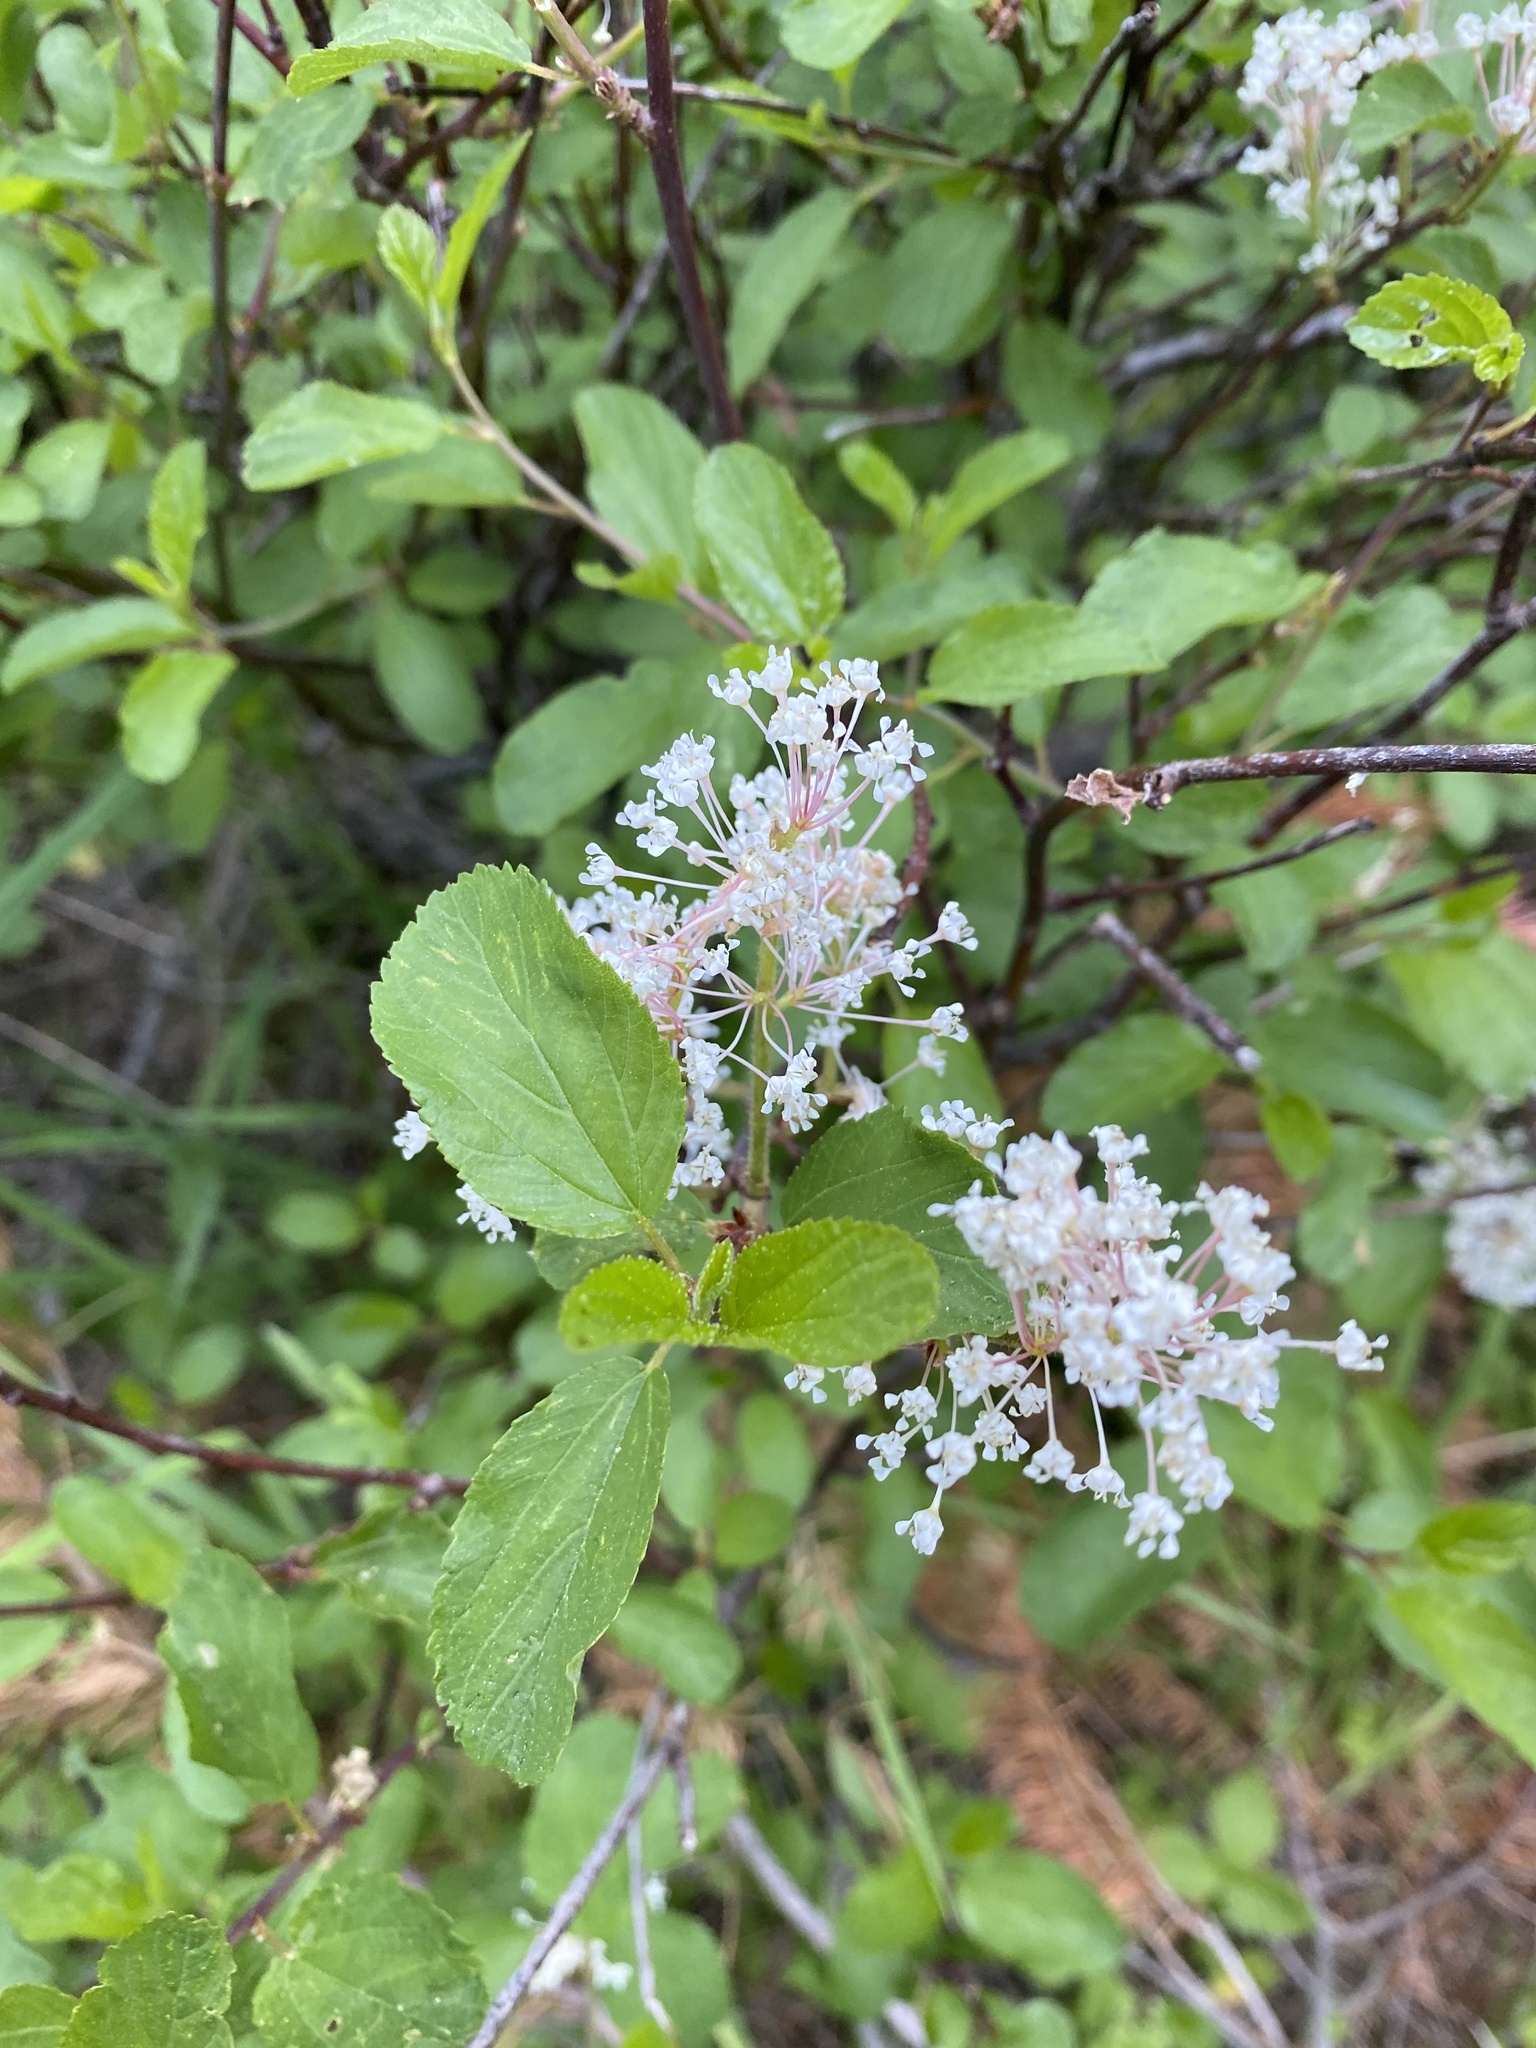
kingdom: Plantae
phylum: Tracheophyta
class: Magnoliopsida
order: Rosales
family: Rhamnaceae
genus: Ceanothus
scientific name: Ceanothus sanguineus
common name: Teatree
